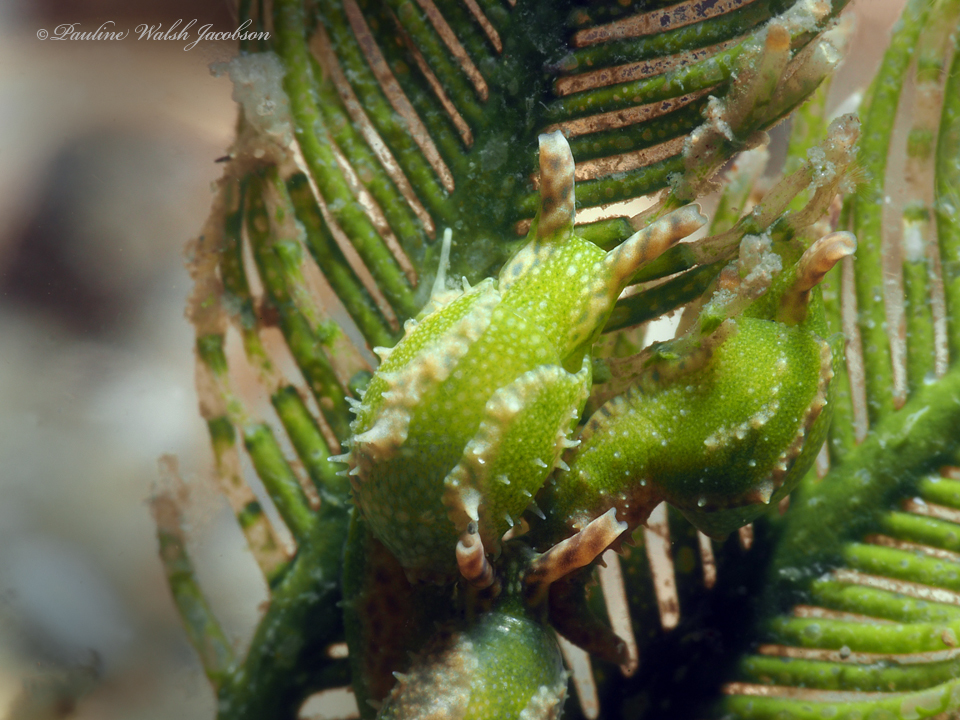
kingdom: Animalia
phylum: Mollusca
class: Gastropoda
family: Oxynoidae
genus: Oxynoe
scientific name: Oxynoe antillarum
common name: Antilles oxynoe
